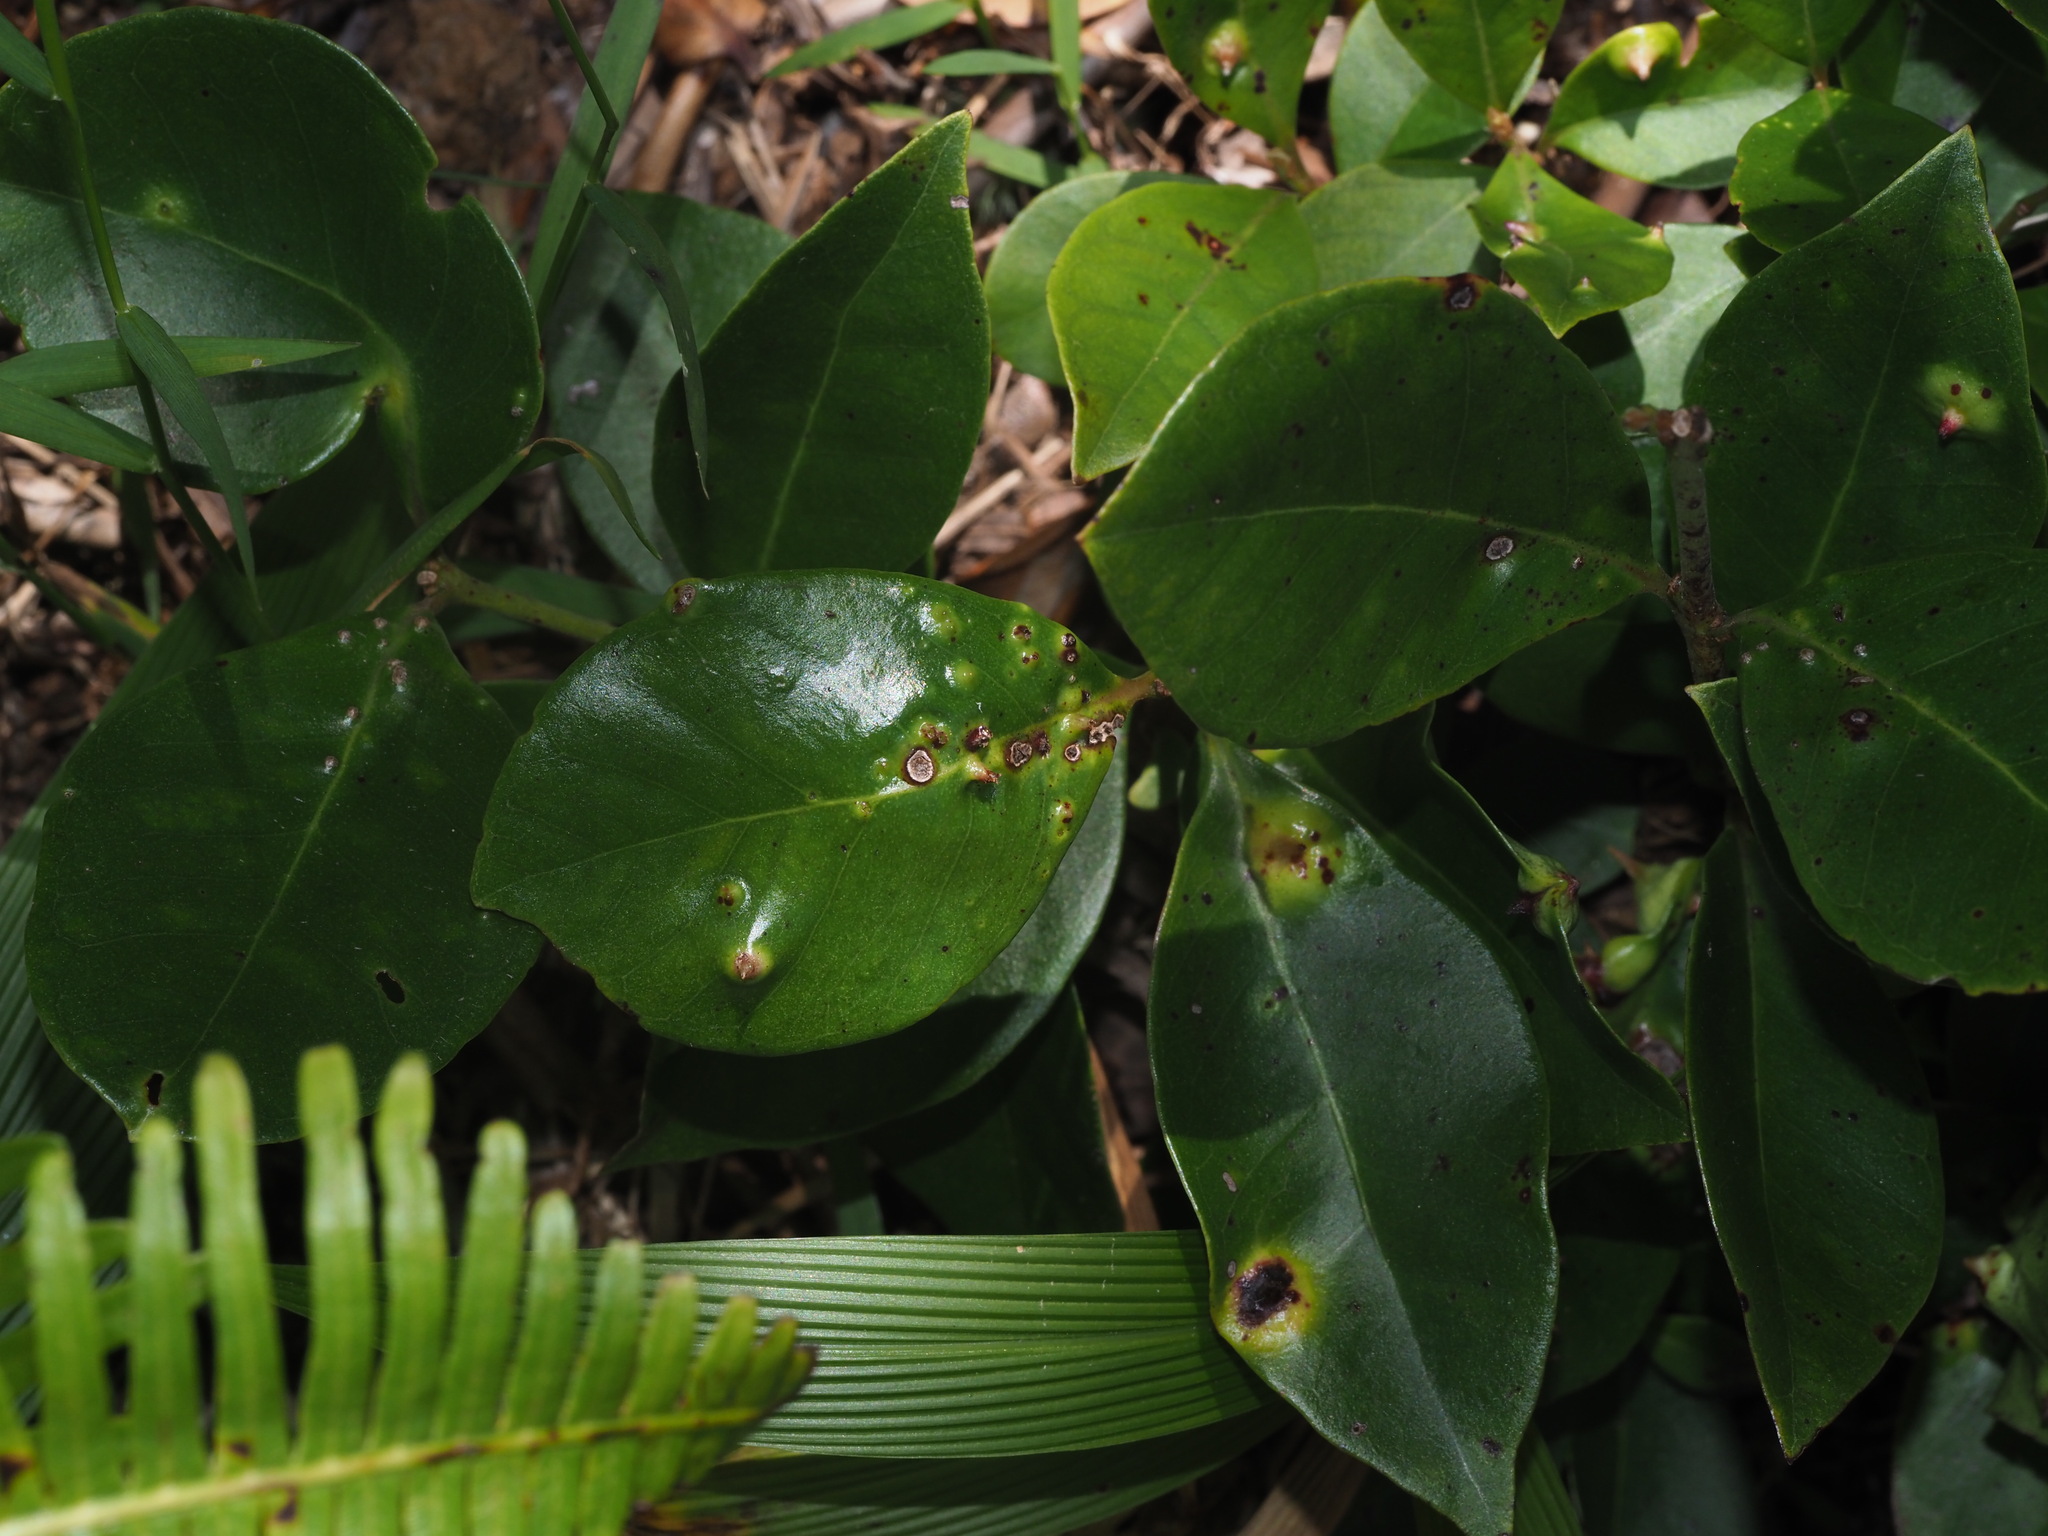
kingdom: Animalia
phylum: Arthropoda
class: Insecta
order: Hemiptera
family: Eriococcidae
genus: Tectococcus
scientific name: Tectococcus ovatus
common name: Eriococcid scale
